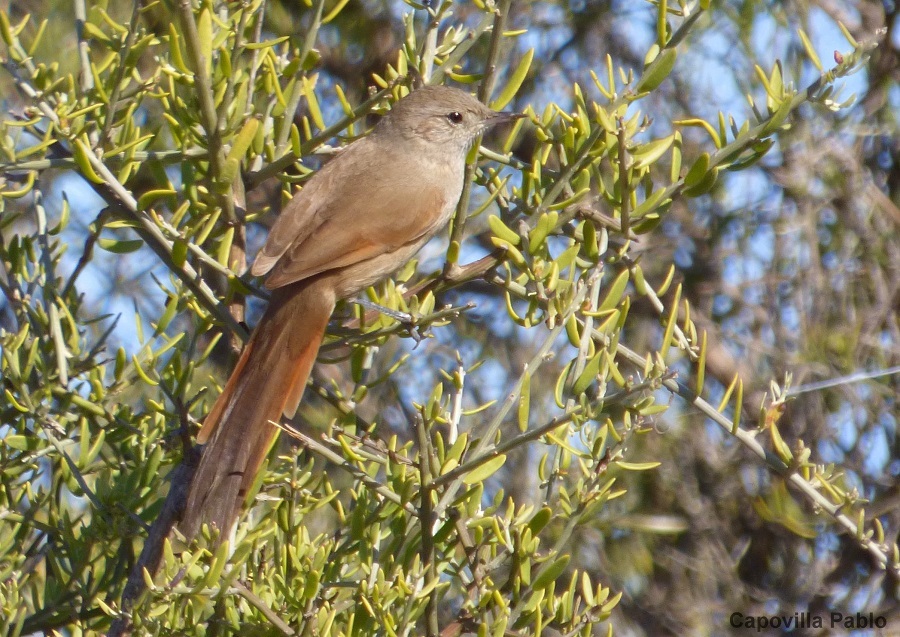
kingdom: Animalia
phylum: Chordata
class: Aves
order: Passeriformes
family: Furnariidae
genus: Asthenes
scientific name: Asthenes pyrrholeuca
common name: Sharp-billed canastero
